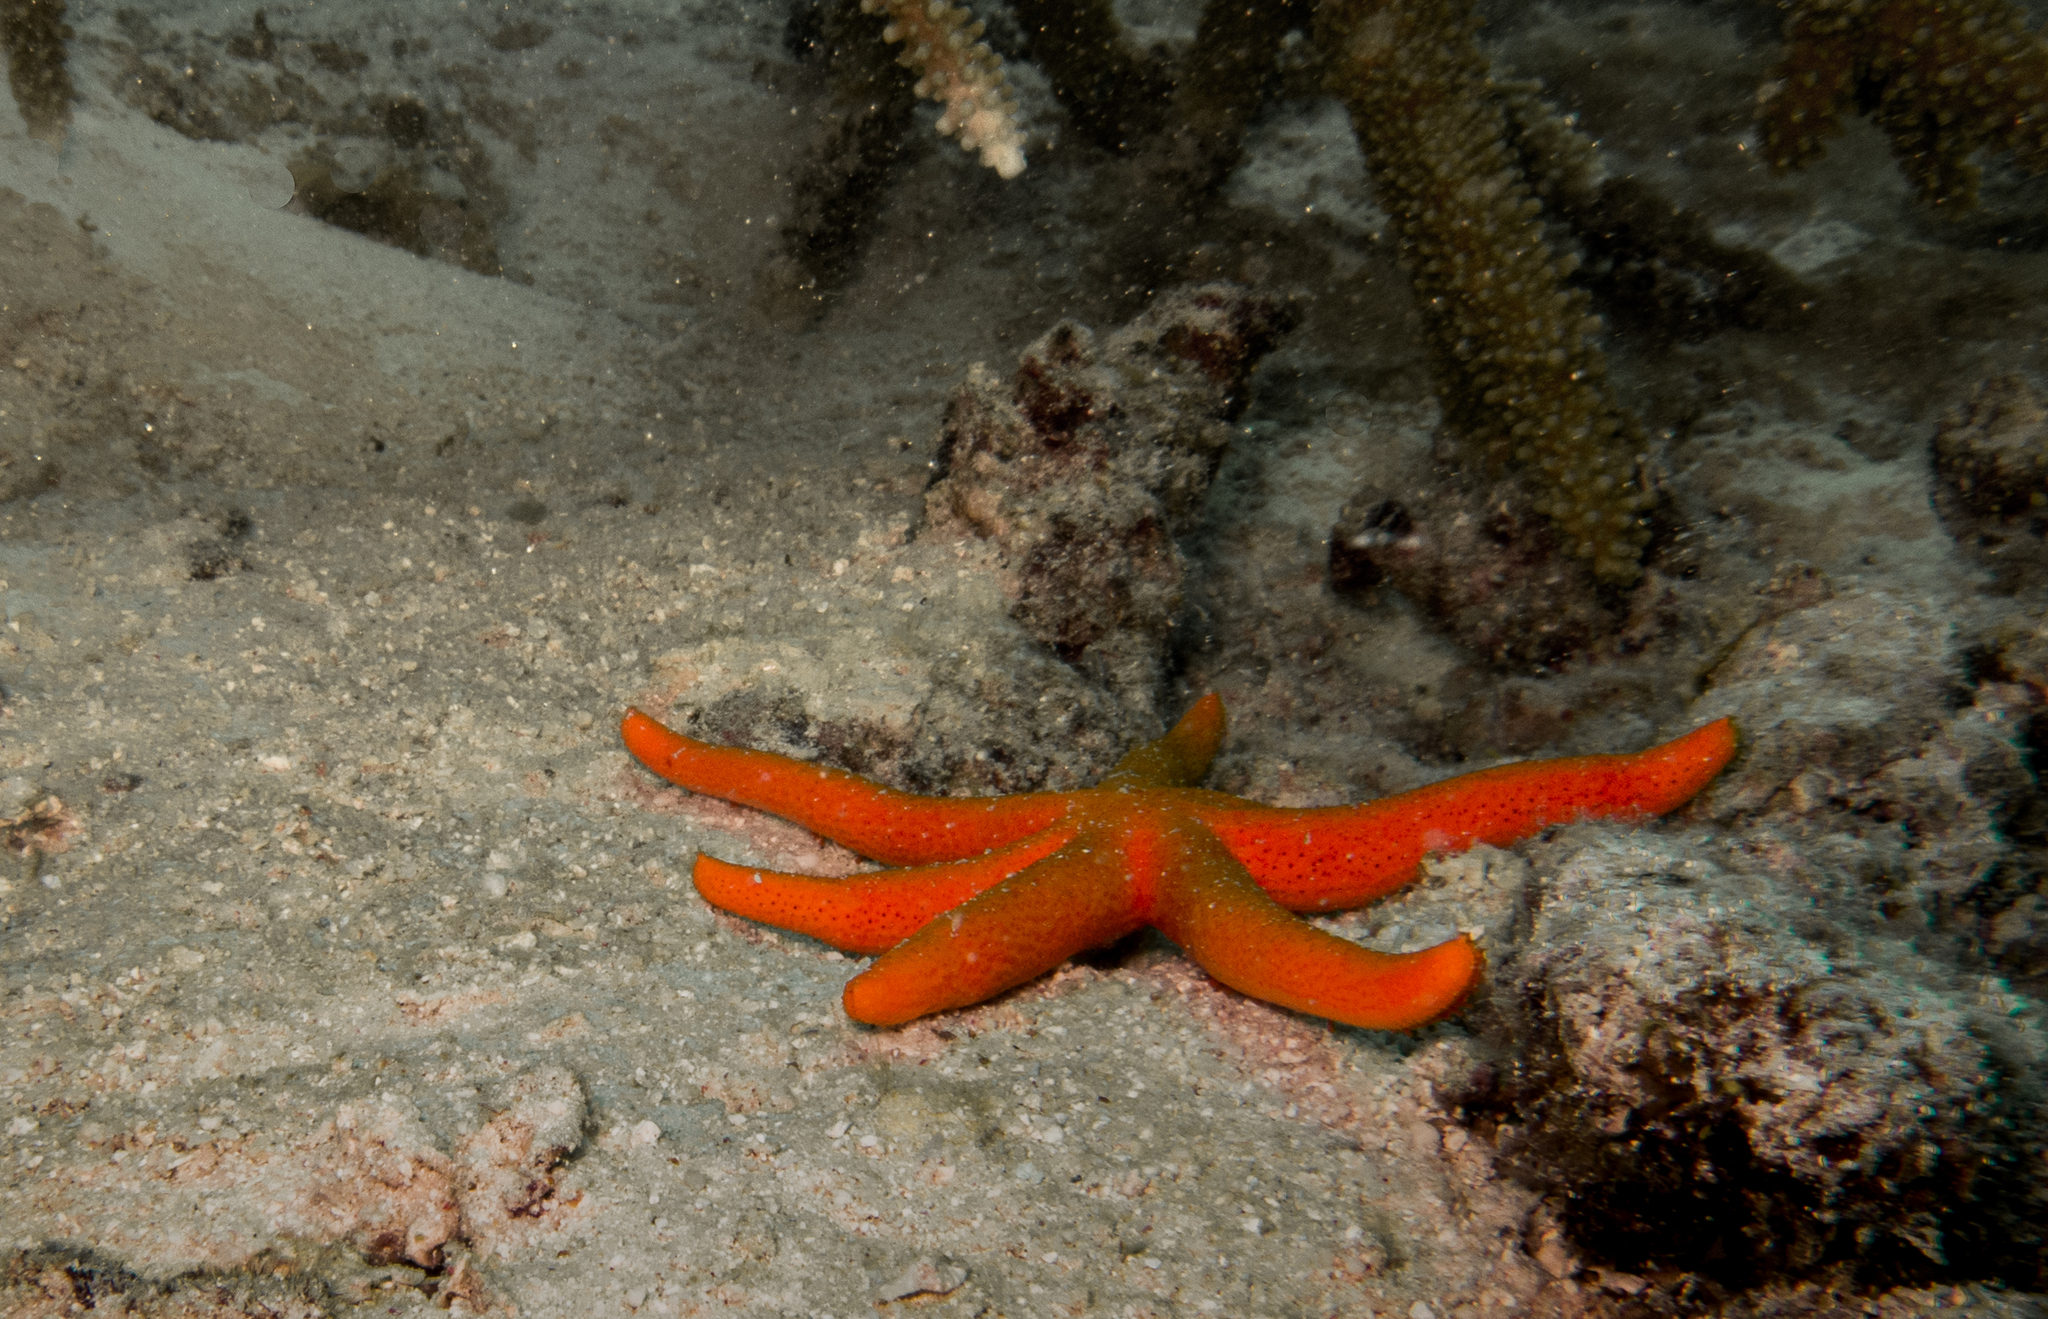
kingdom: Animalia
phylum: Echinodermata
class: Asteroidea
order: Spinulosida
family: Echinasteridae
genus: Echinaster
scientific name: Echinaster luzonicus
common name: Luzon seastar
